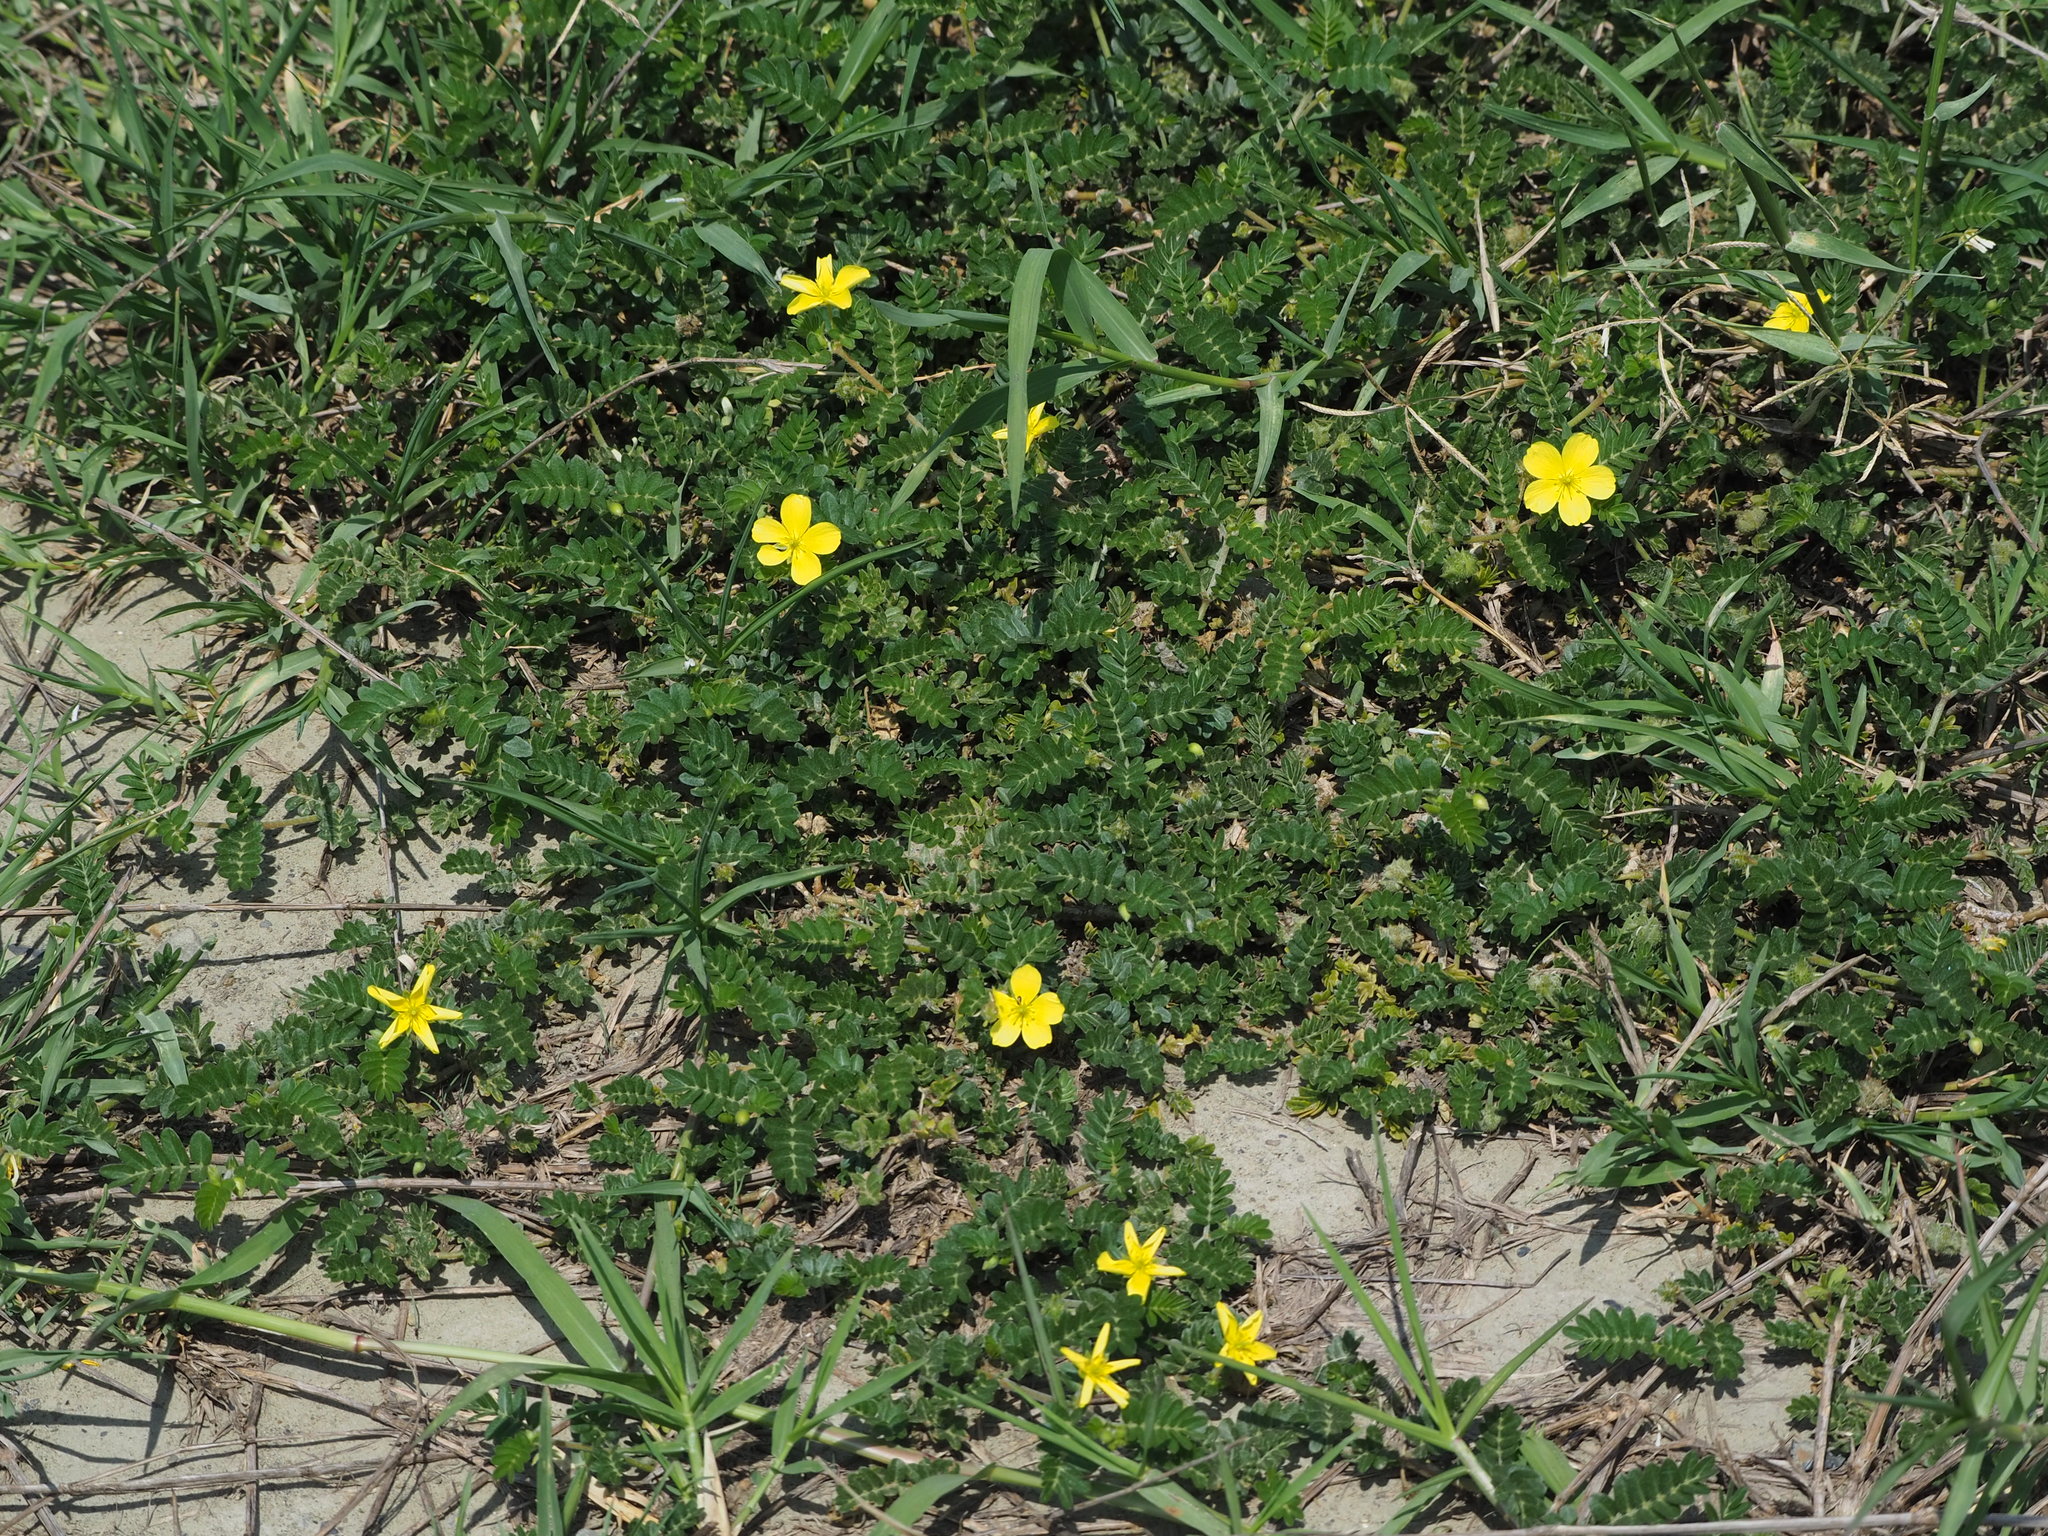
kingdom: Plantae
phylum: Tracheophyta
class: Magnoliopsida
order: Zygophyllales
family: Zygophyllaceae
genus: Tribulus
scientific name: Tribulus cistoides
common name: Jamaican feverplant
